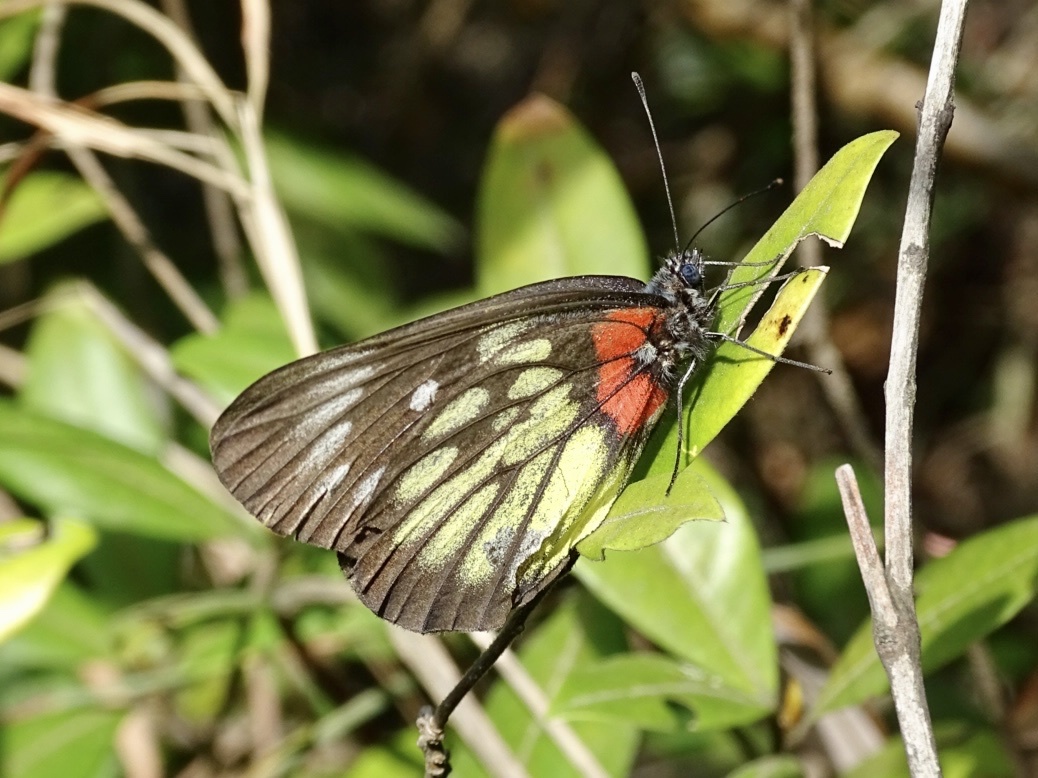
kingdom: Animalia
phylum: Arthropoda
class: Insecta
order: Lepidoptera
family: Pieridae
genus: Delias
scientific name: Delias pasithoe
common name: Red-base jezebel
